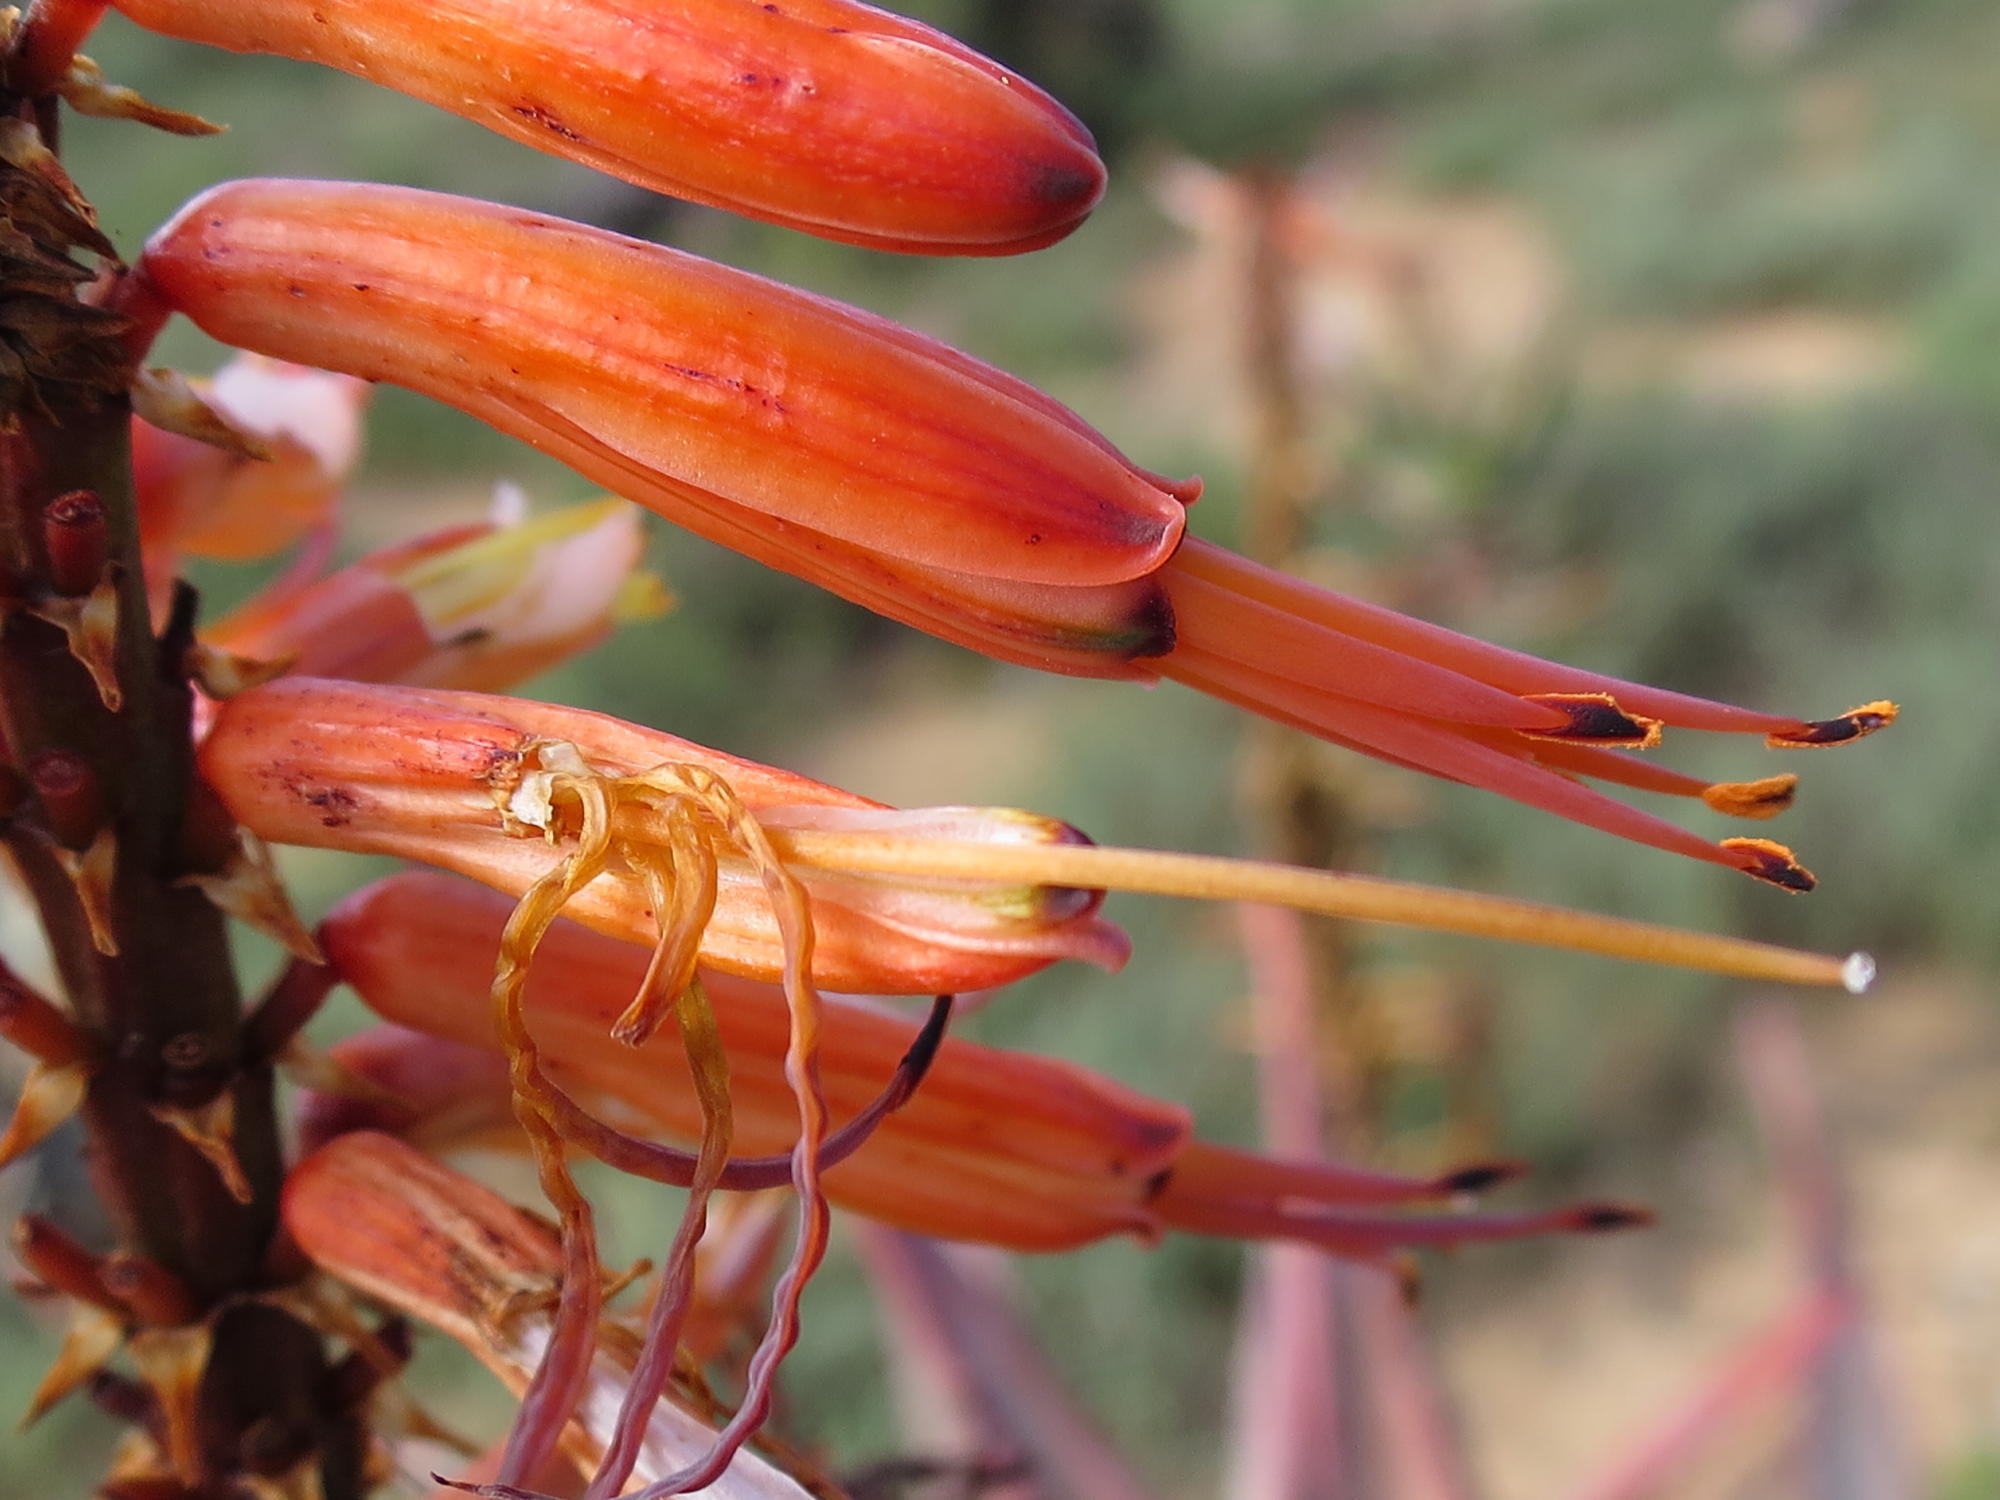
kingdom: Plantae
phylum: Tracheophyta
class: Liliopsida
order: Asparagales
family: Asphodelaceae
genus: Aloe
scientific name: Aloe ferox
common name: Bitter aloe
